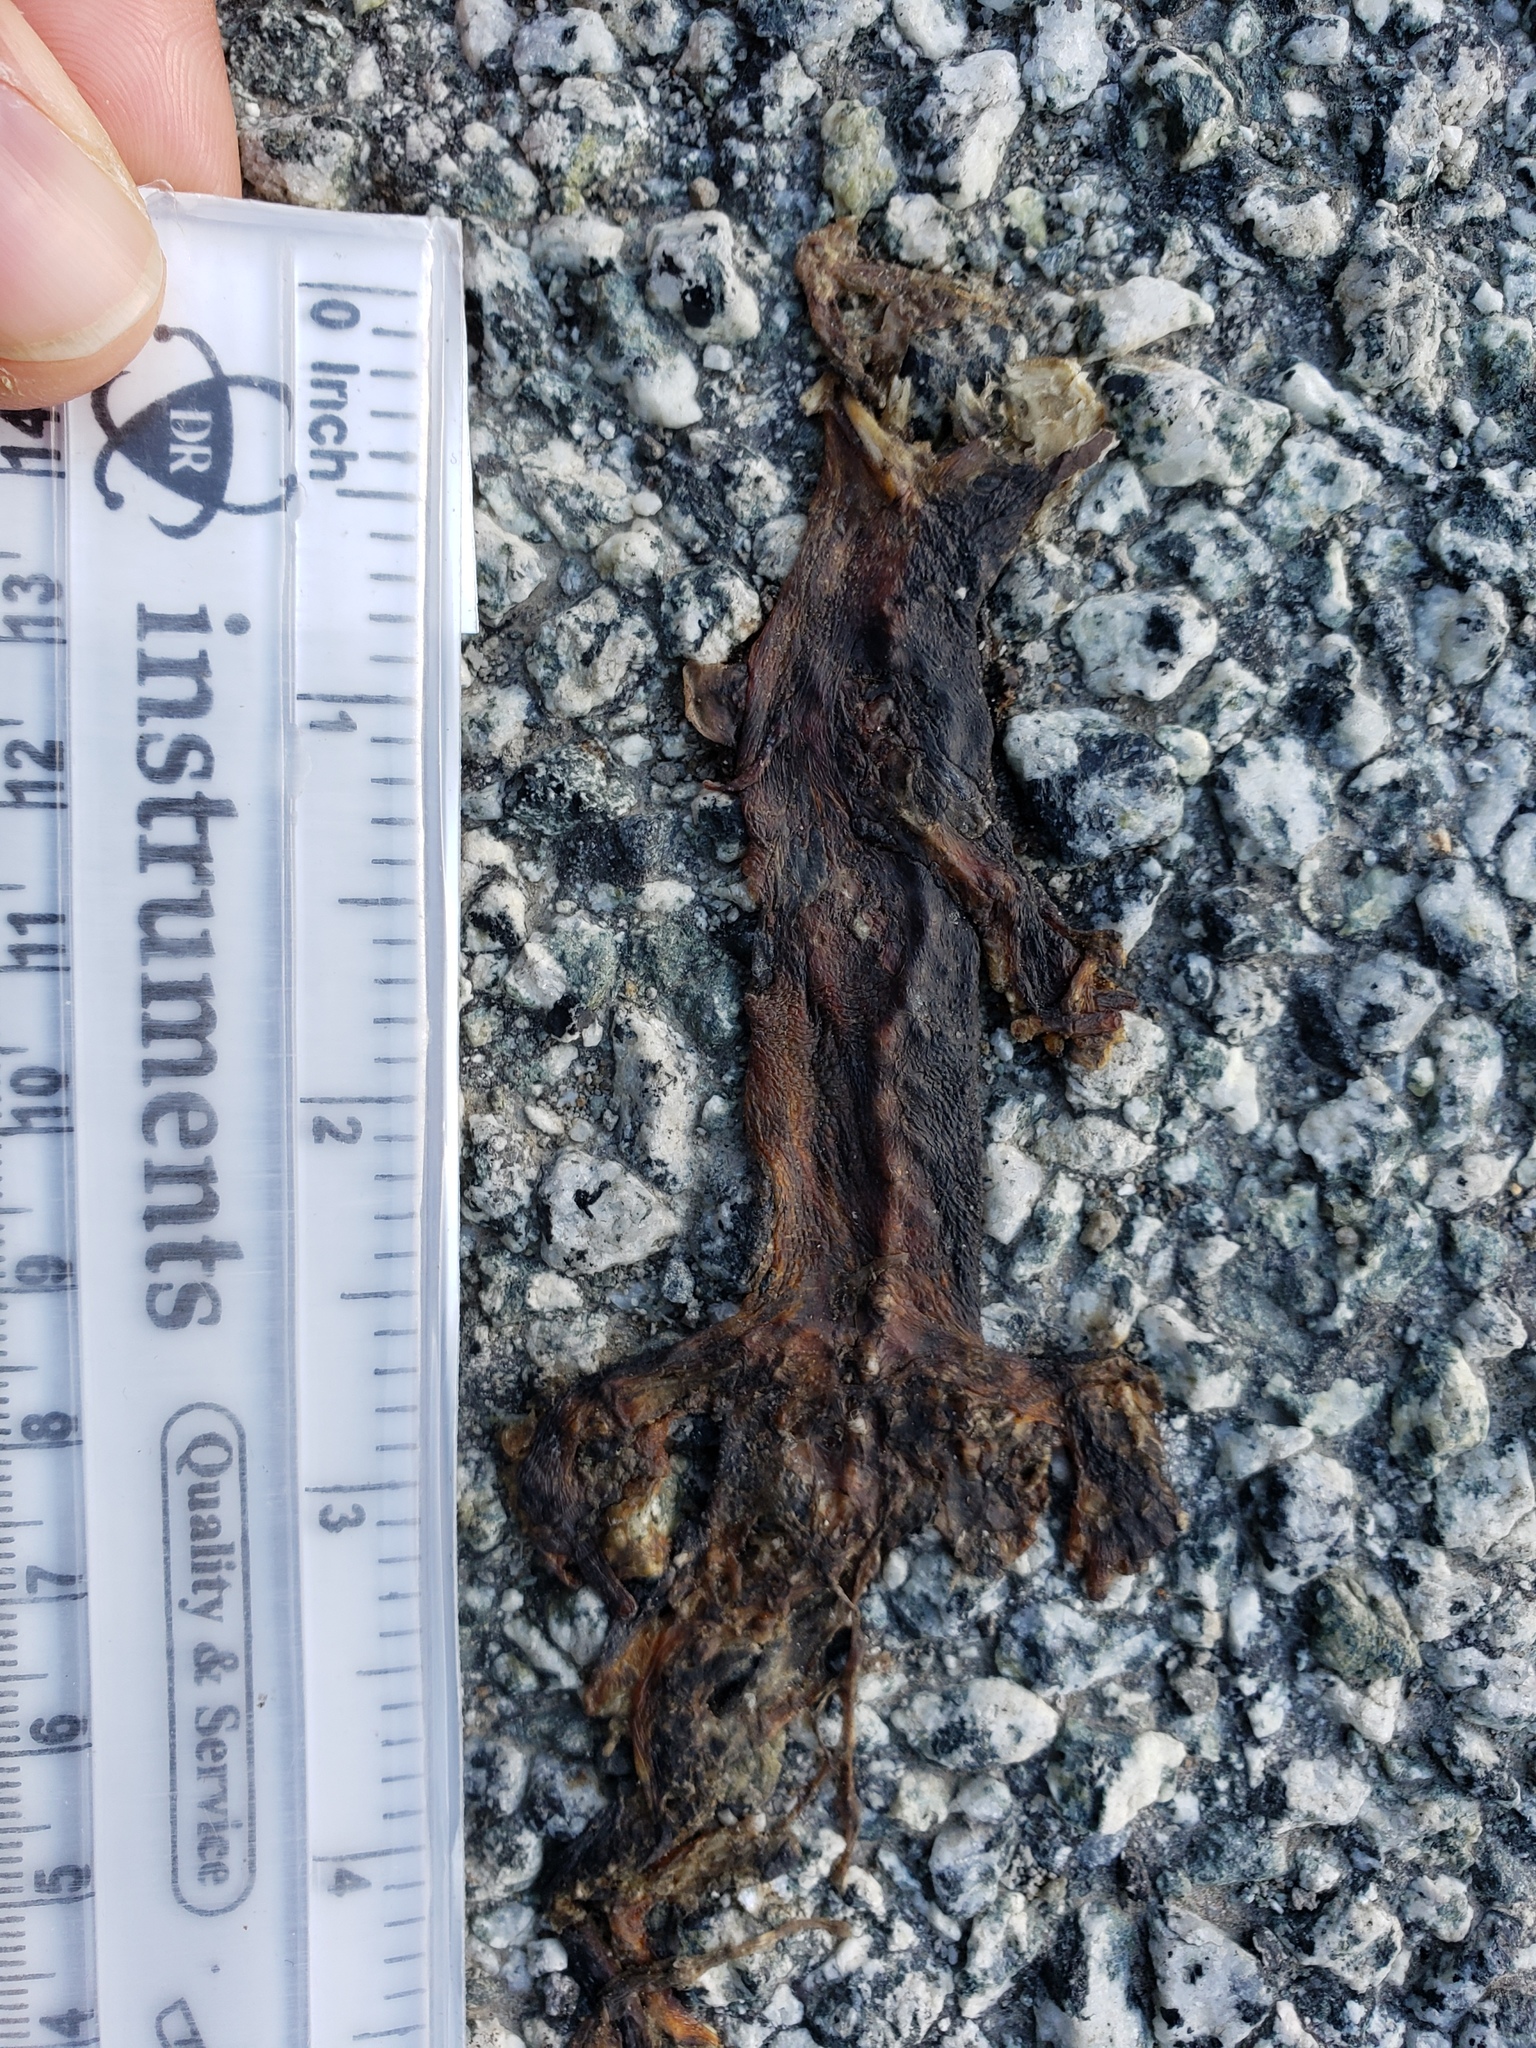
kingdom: Animalia
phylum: Chordata
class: Amphibia
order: Caudata
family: Salamandridae
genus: Taricha
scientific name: Taricha
